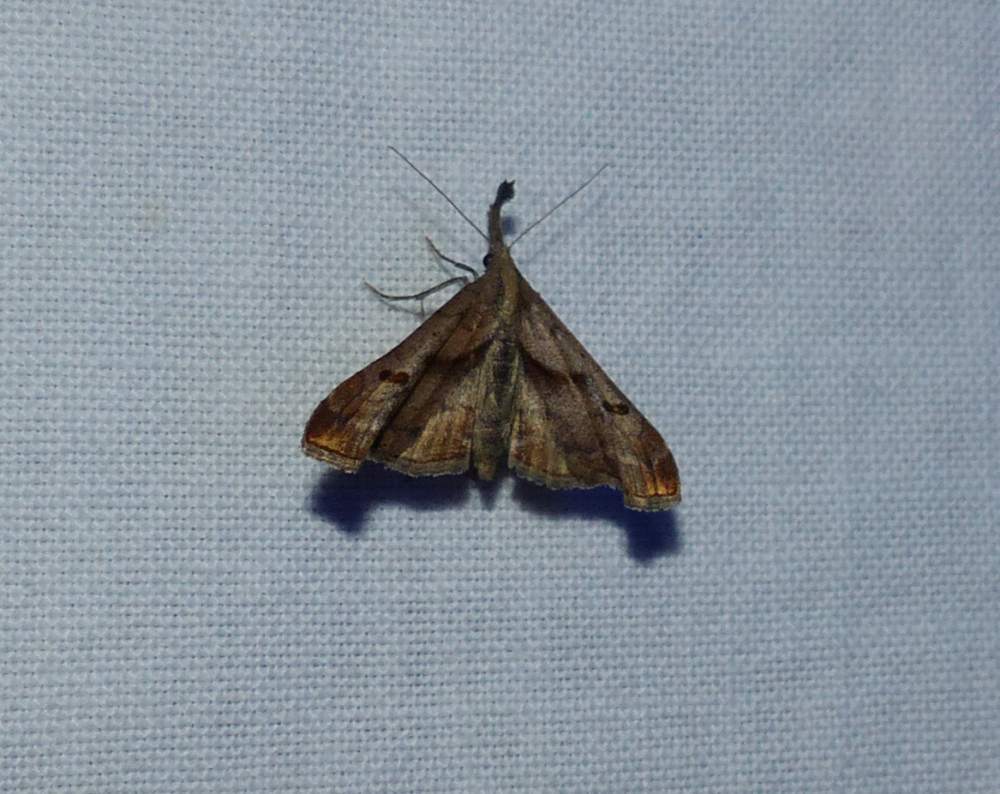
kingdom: Animalia
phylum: Arthropoda
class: Insecta
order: Lepidoptera
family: Erebidae
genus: Palthis
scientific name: Palthis angulalis
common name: Dark-spotted palthis moth
